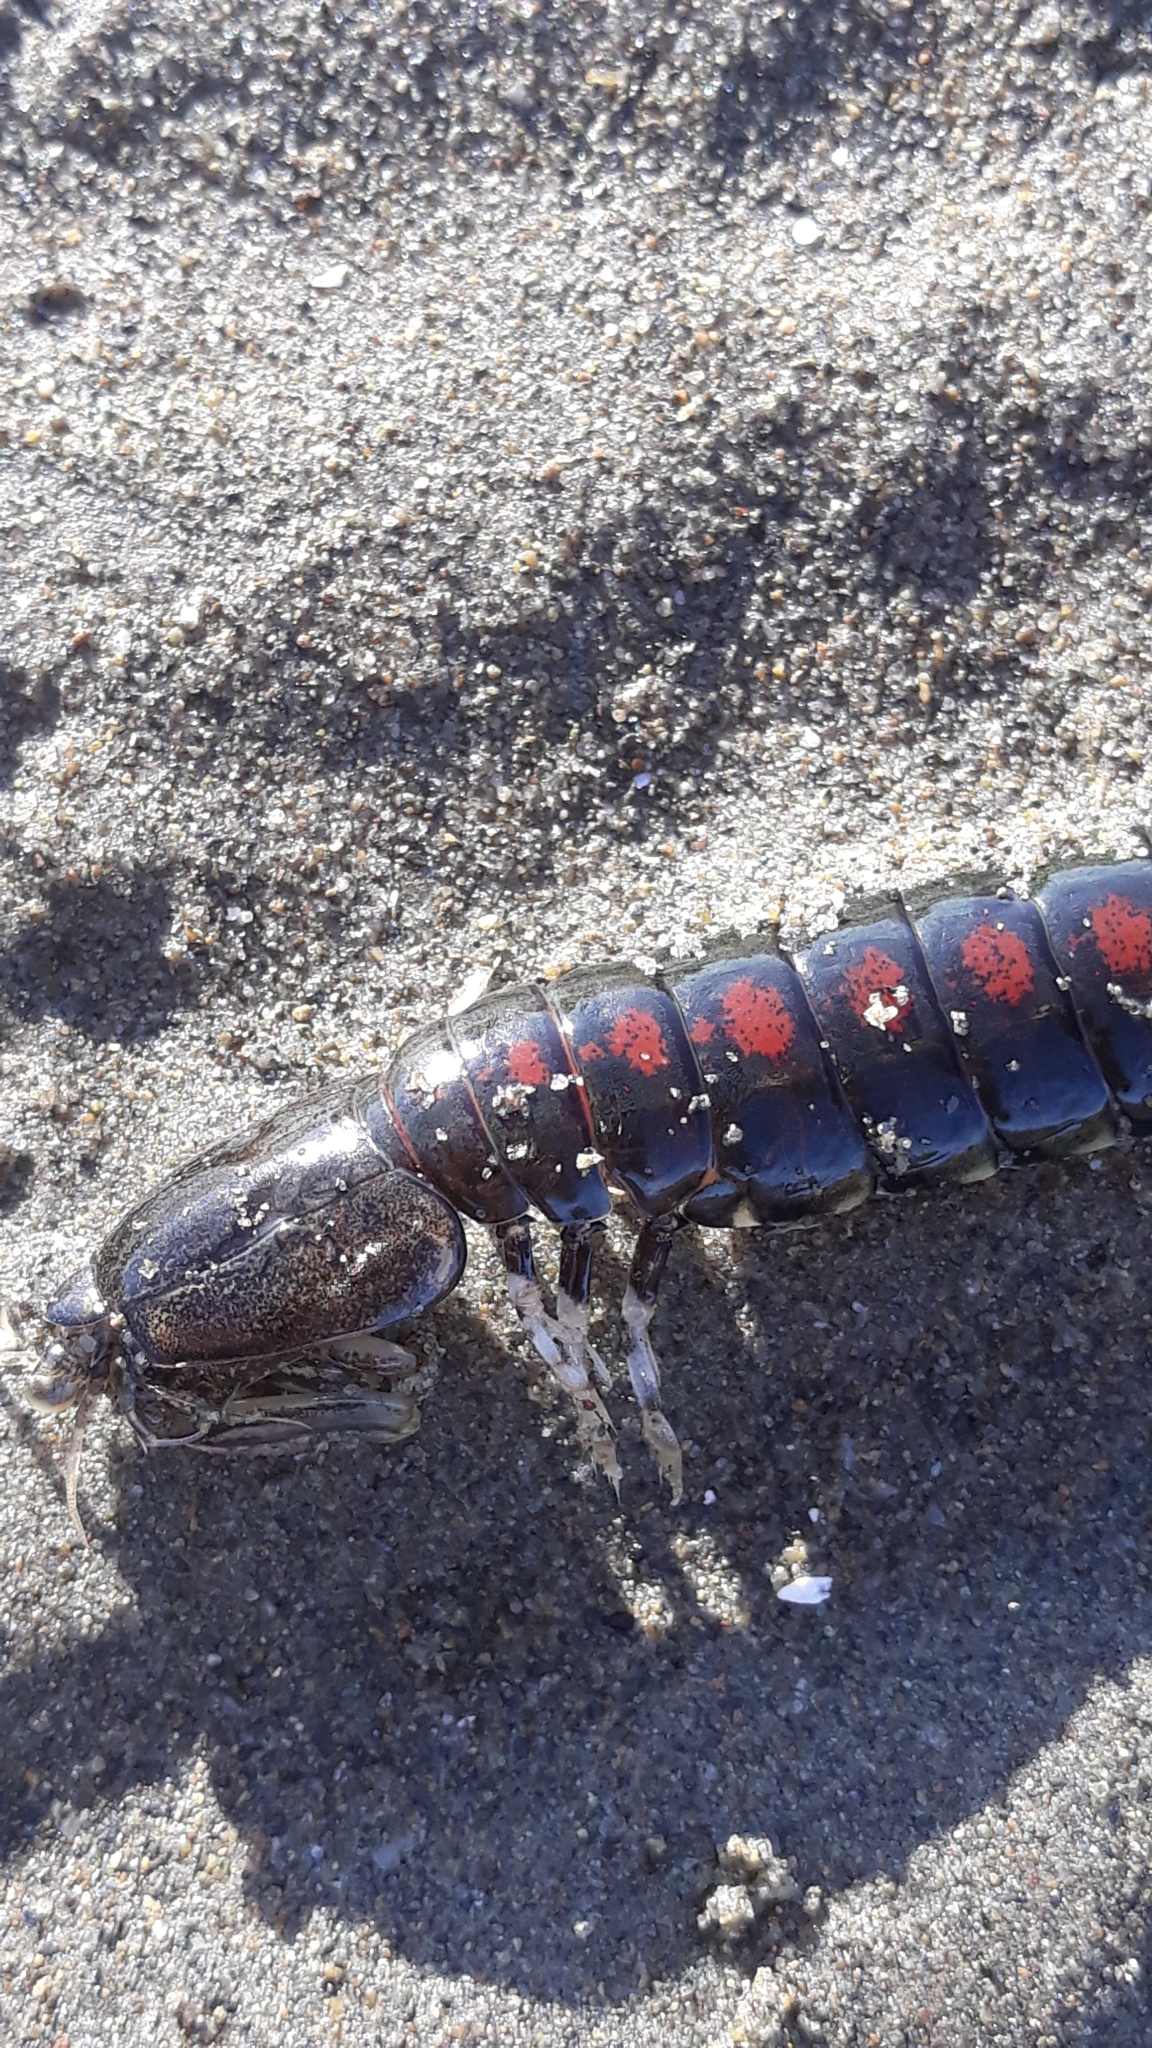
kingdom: Animalia
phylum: Arthropoda
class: Malacostraca
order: Stomatopoda
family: Tetrasquillidae
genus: Heterosquilla
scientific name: Heterosquilla tricarinata
